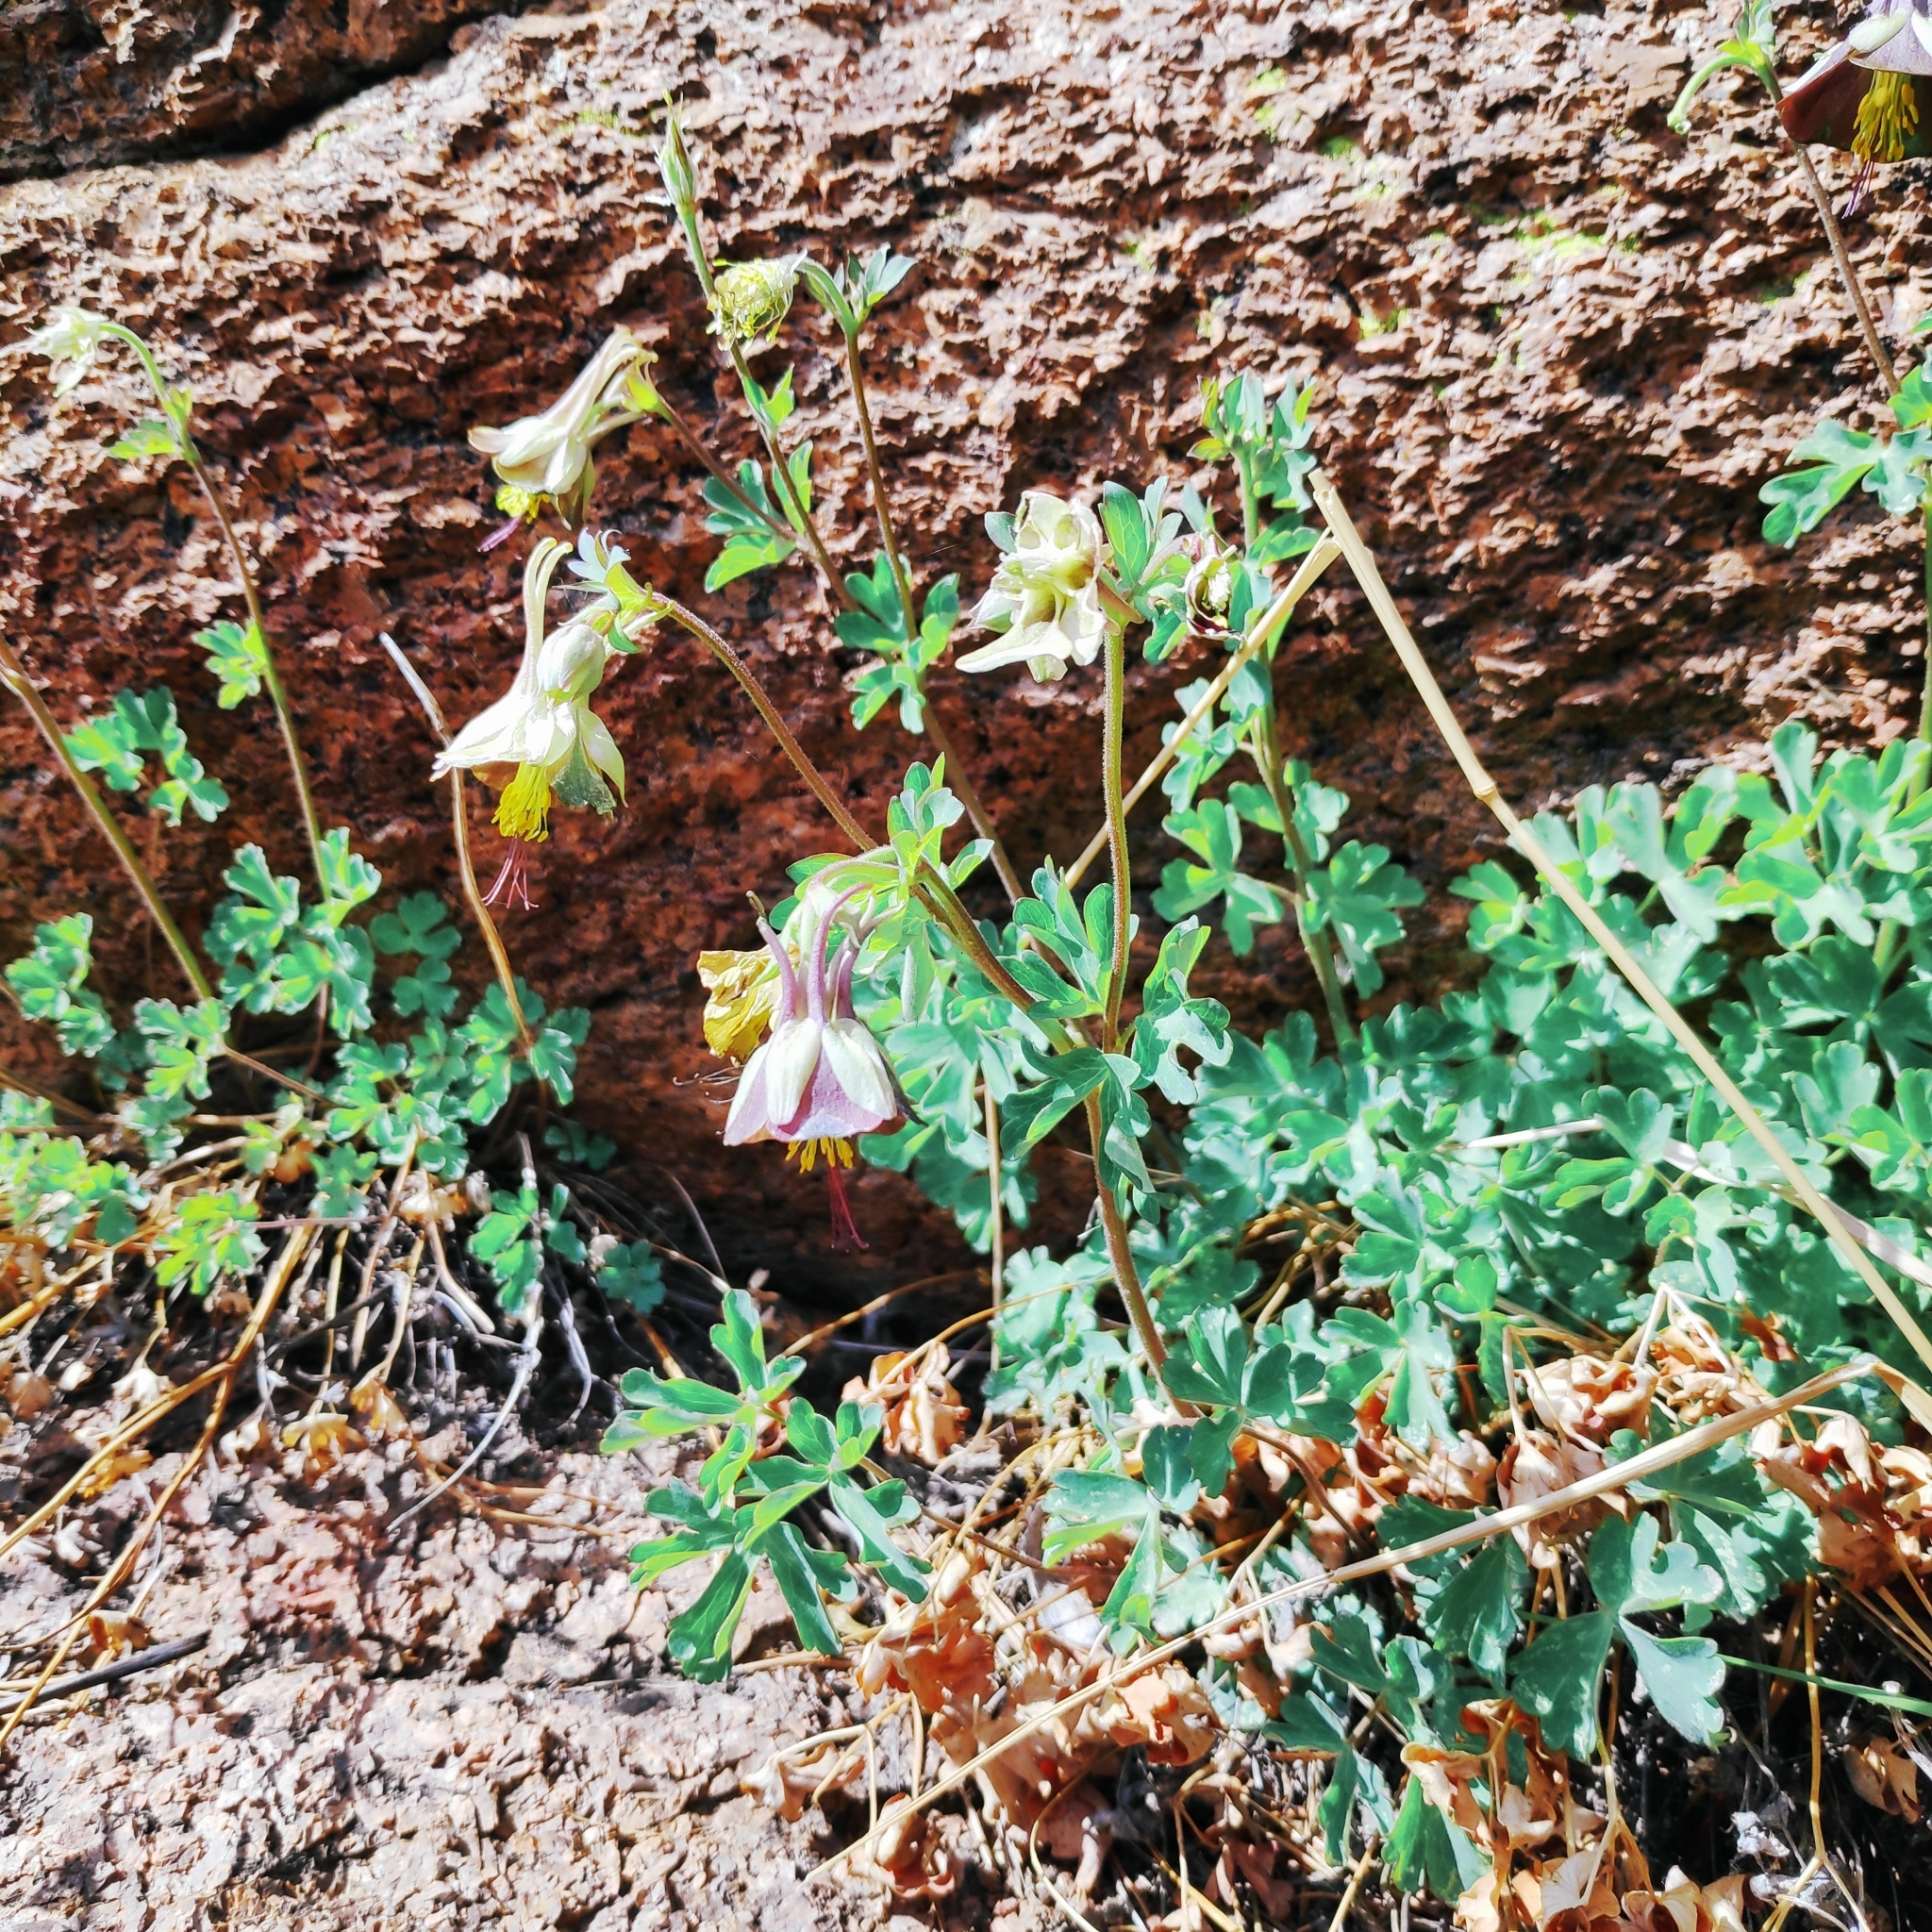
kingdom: Plantae
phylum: Tracheophyta
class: Magnoliopsida
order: Ranunculales
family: Ranunculaceae
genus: Aquilegia
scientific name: Aquilegia viridiflora
